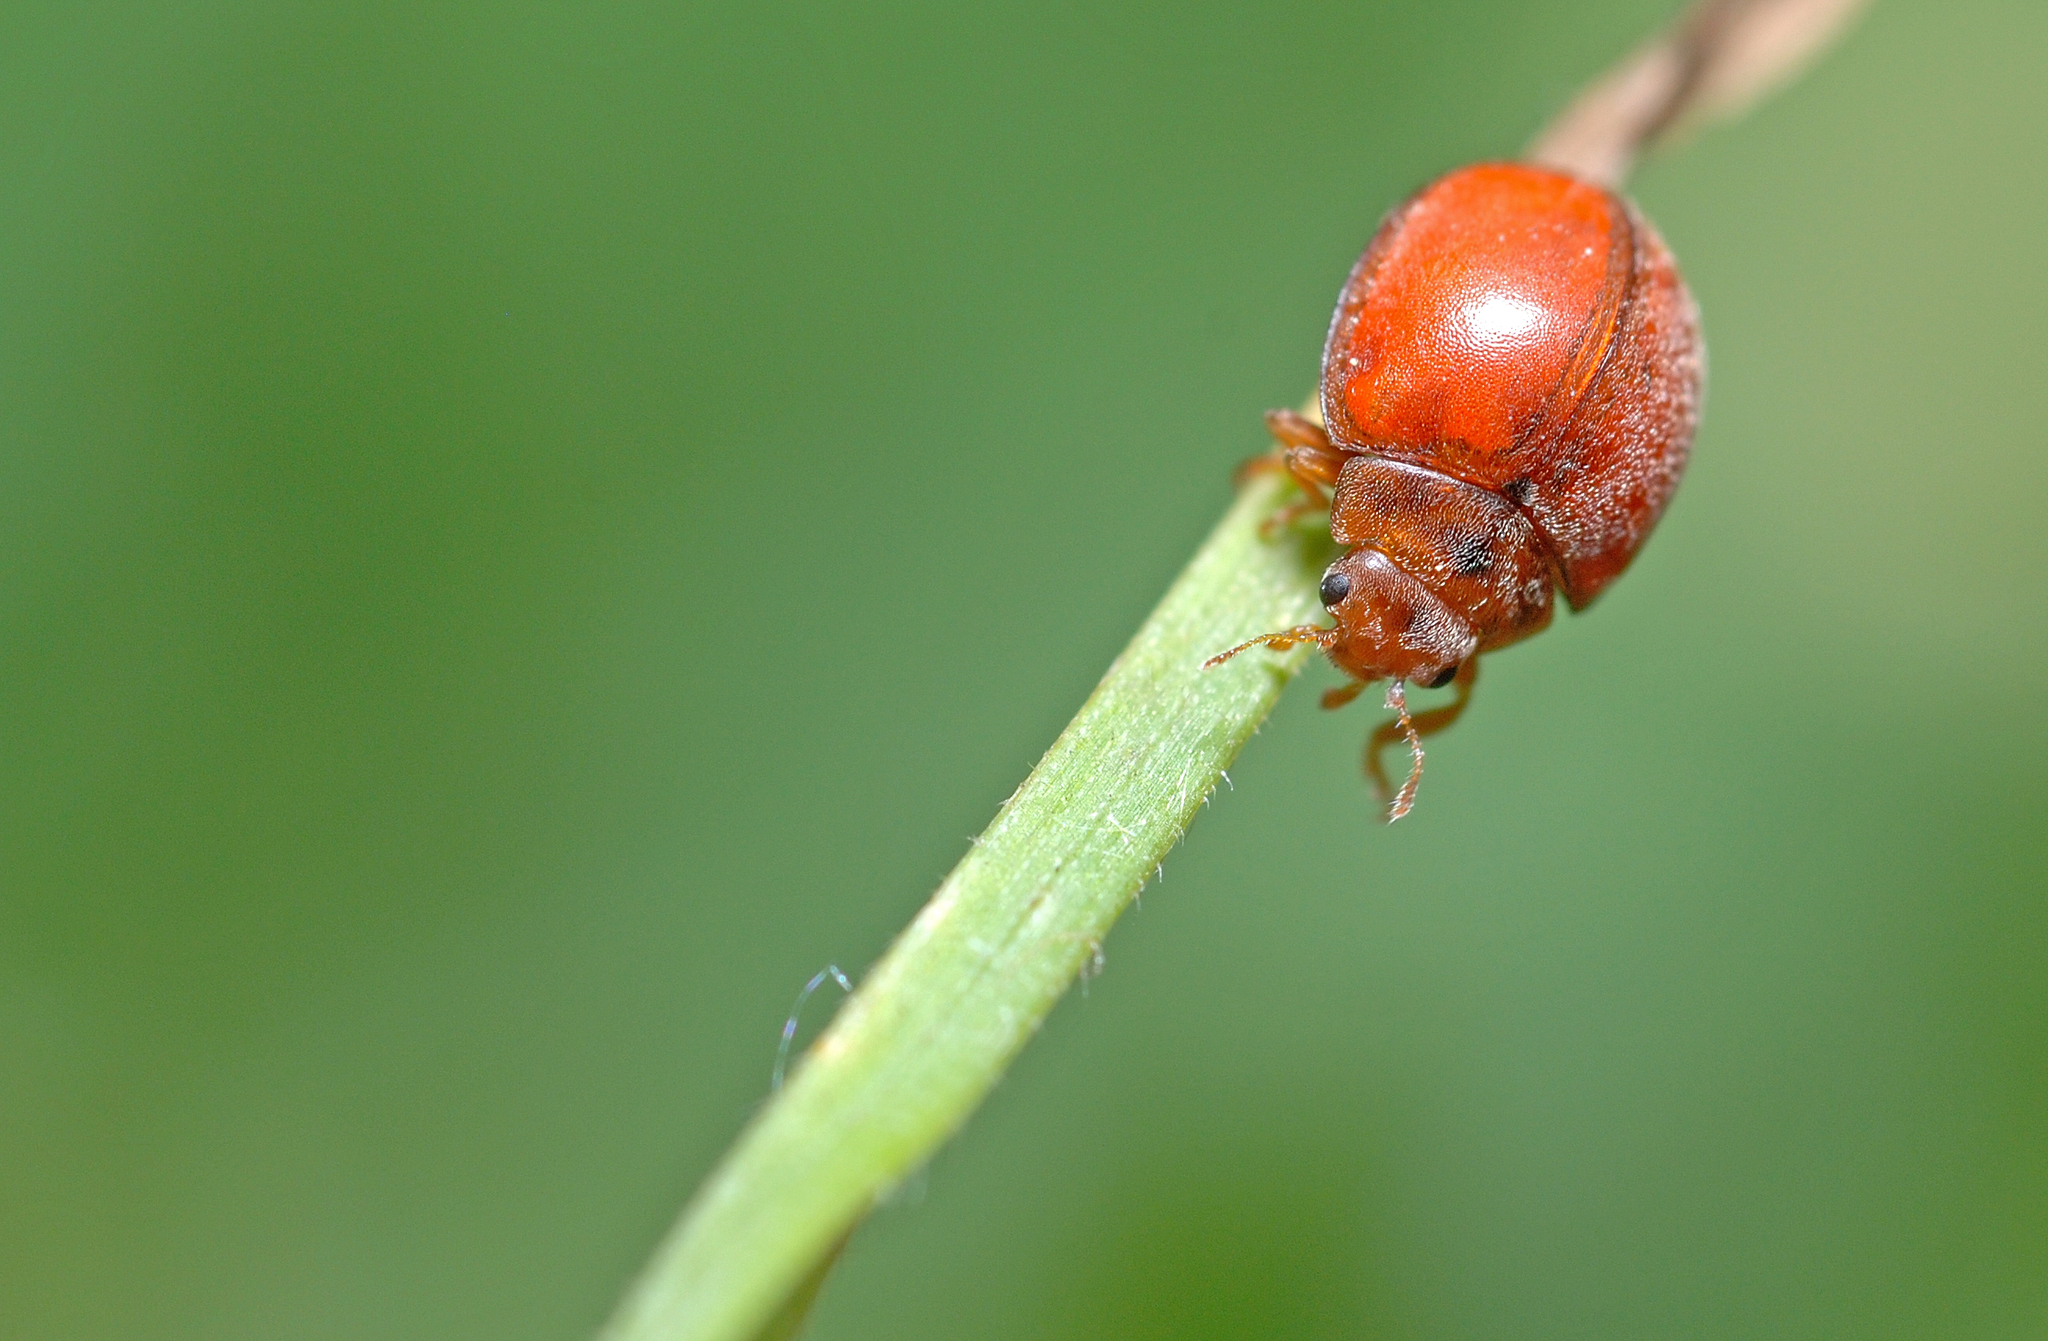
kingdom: Animalia
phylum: Arthropoda
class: Insecta
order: Coleoptera
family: Coccinellidae
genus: Subcoccinella
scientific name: Subcoccinella vigintiquatuorpunctata
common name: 24-spot ladybird
